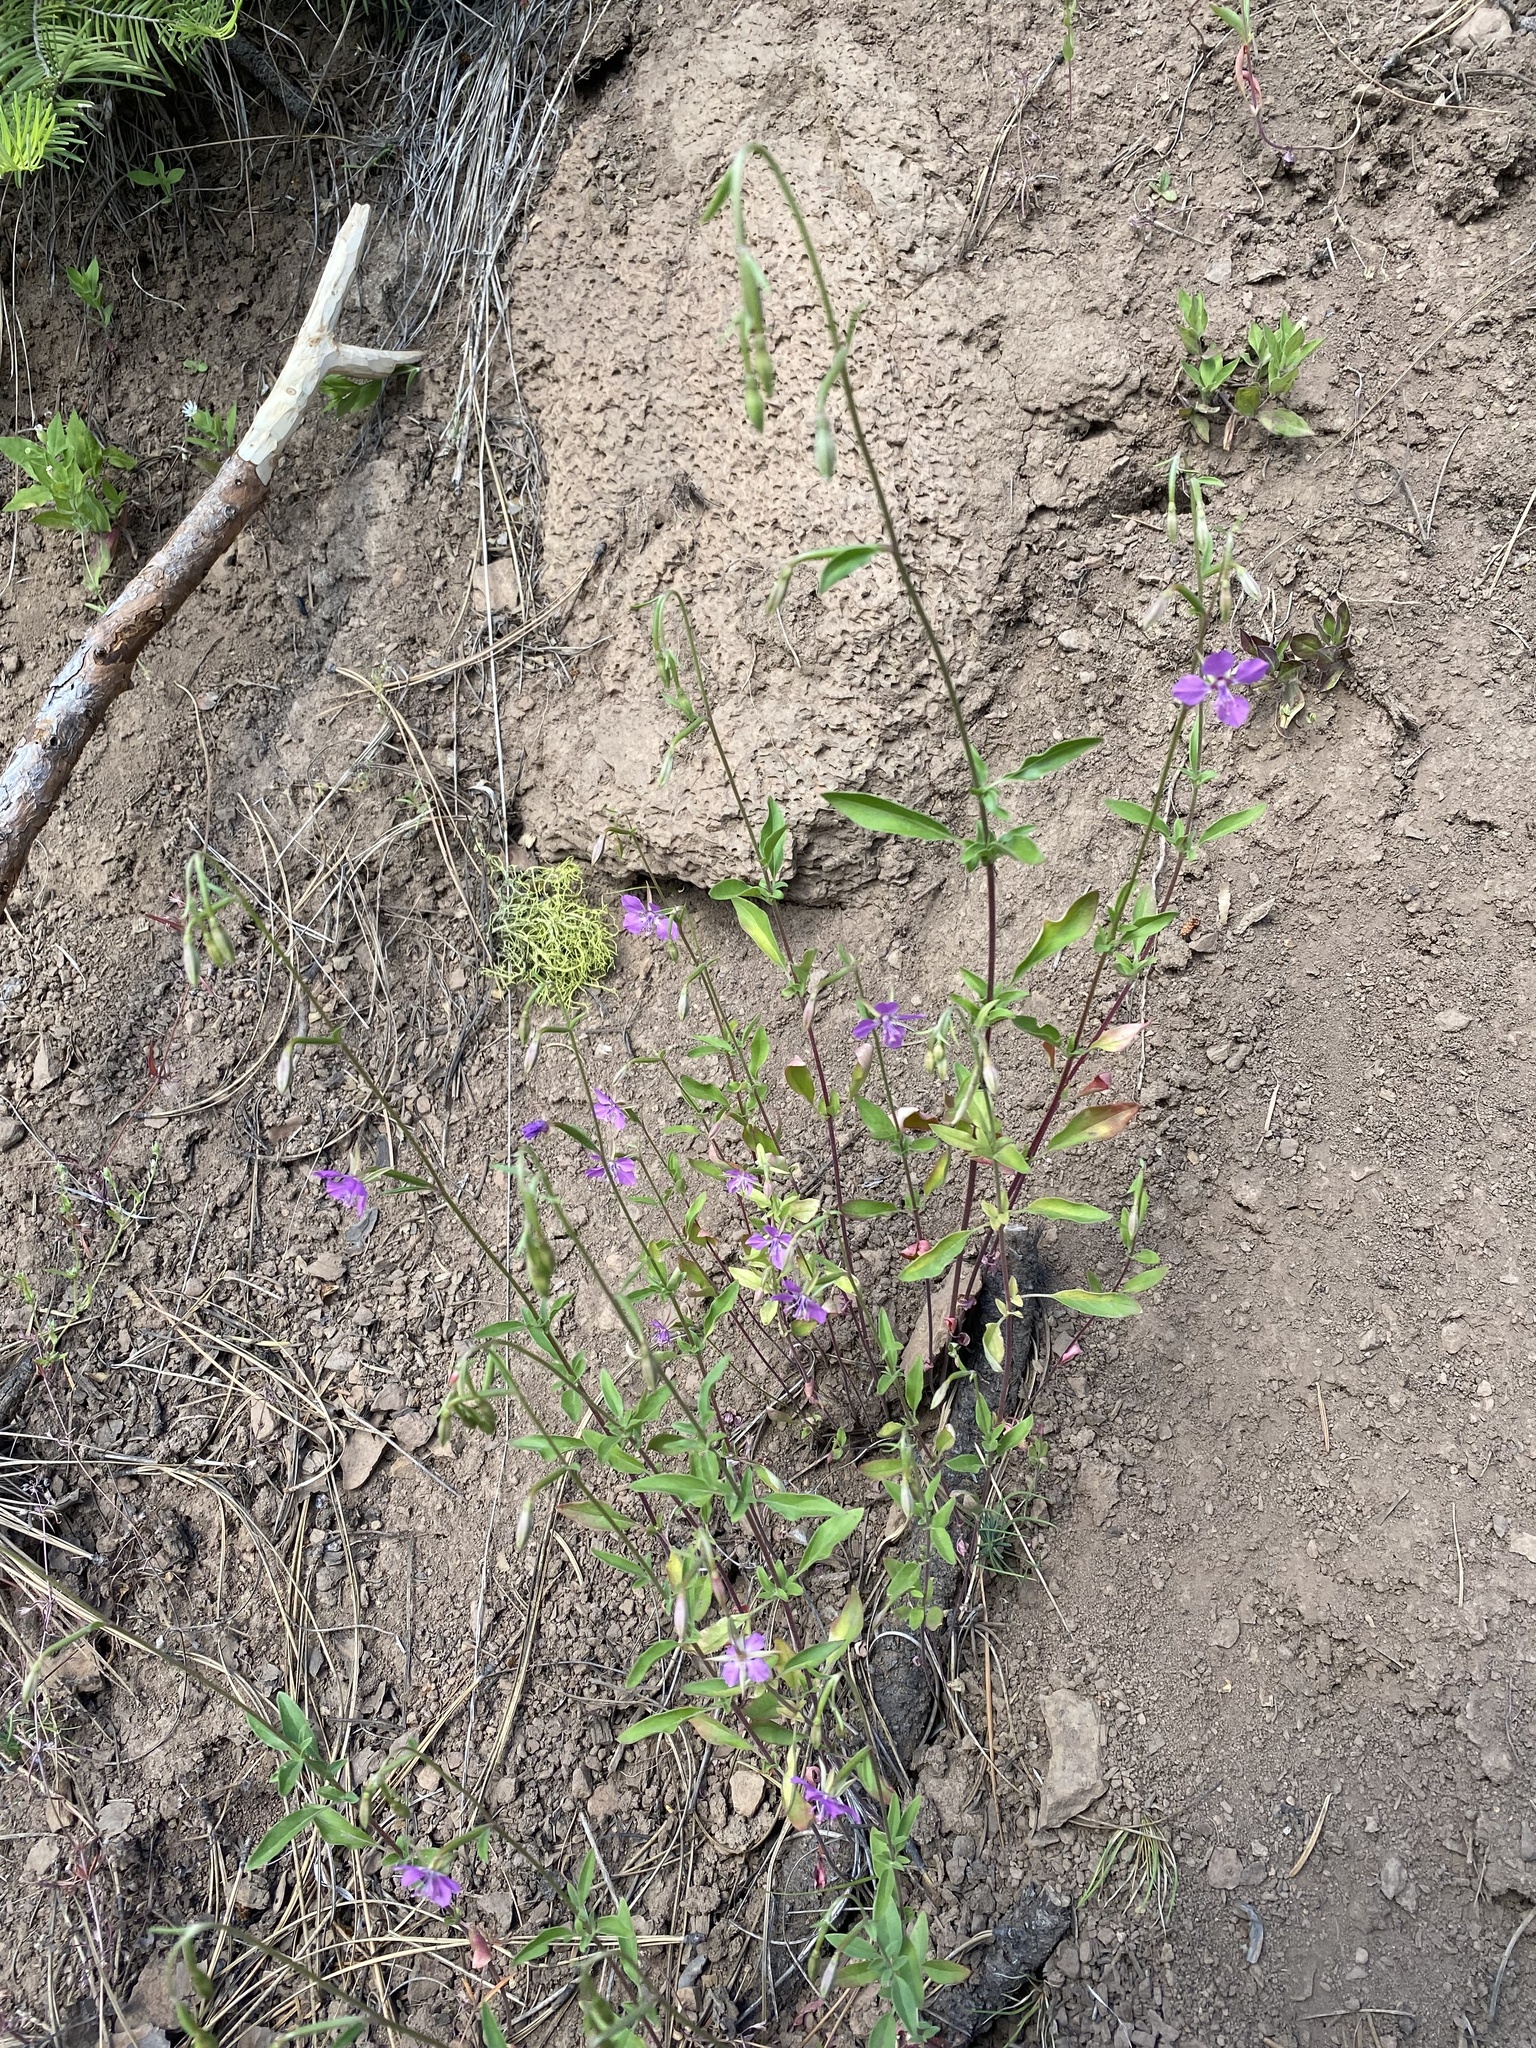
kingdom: Plantae
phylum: Tracheophyta
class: Magnoliopsida
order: Myrtales
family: Onagraceae
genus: Clarkia
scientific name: Clarkia rhomboidea
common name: Broadleaf clarkia
